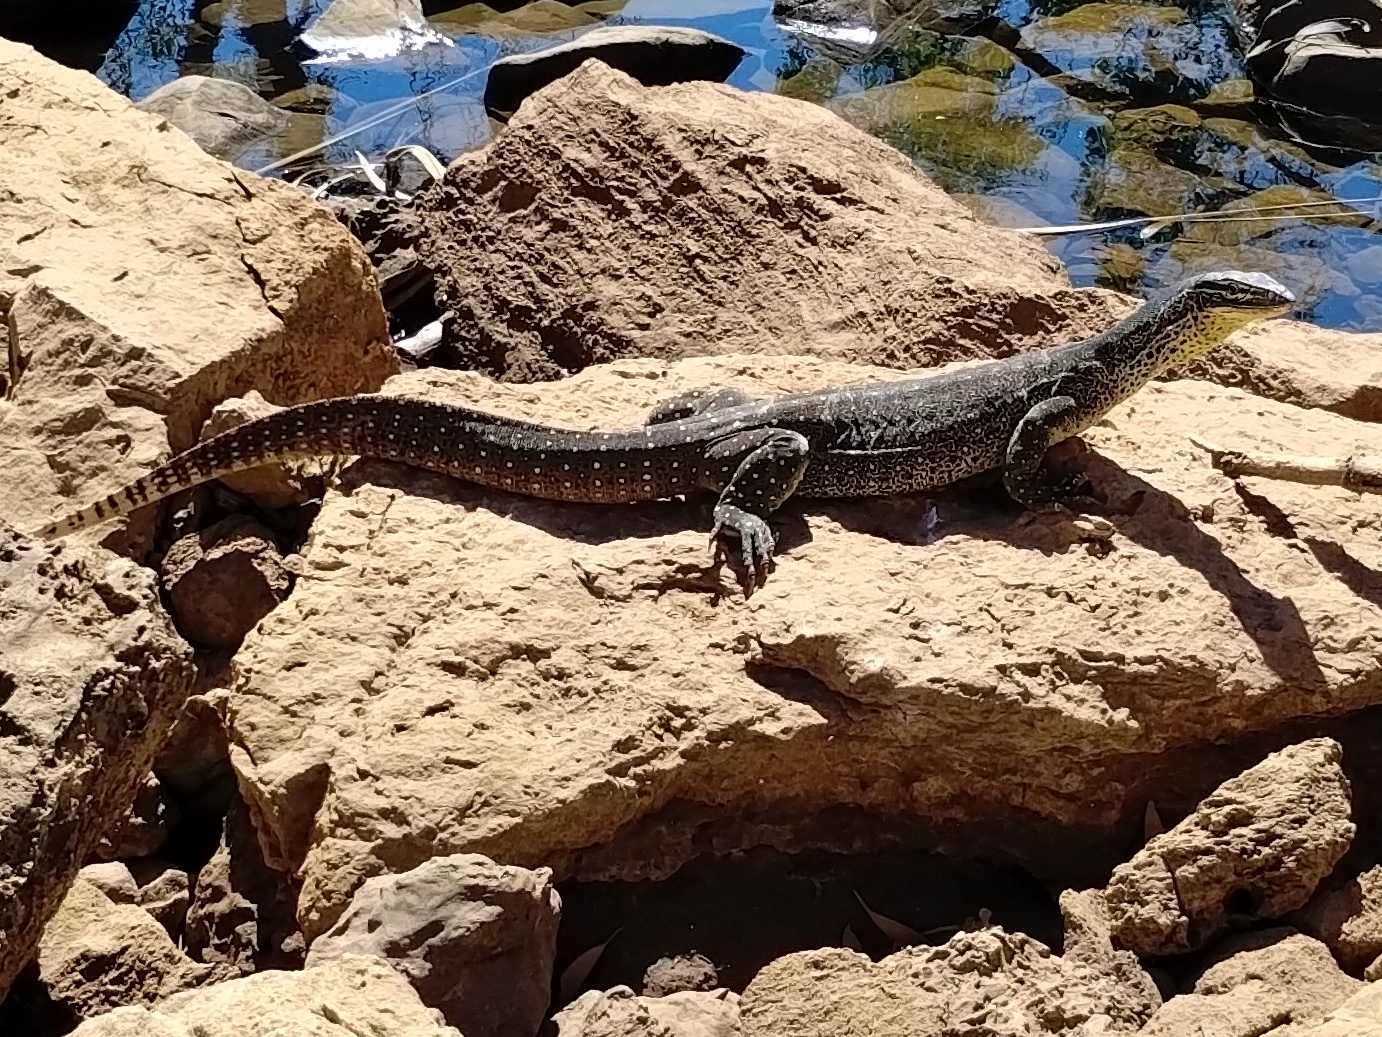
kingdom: Animalia
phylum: Chordata
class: Squamata
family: Varanidae
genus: Varanus
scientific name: Varanus panoptes
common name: Yellow-spotted monitor
